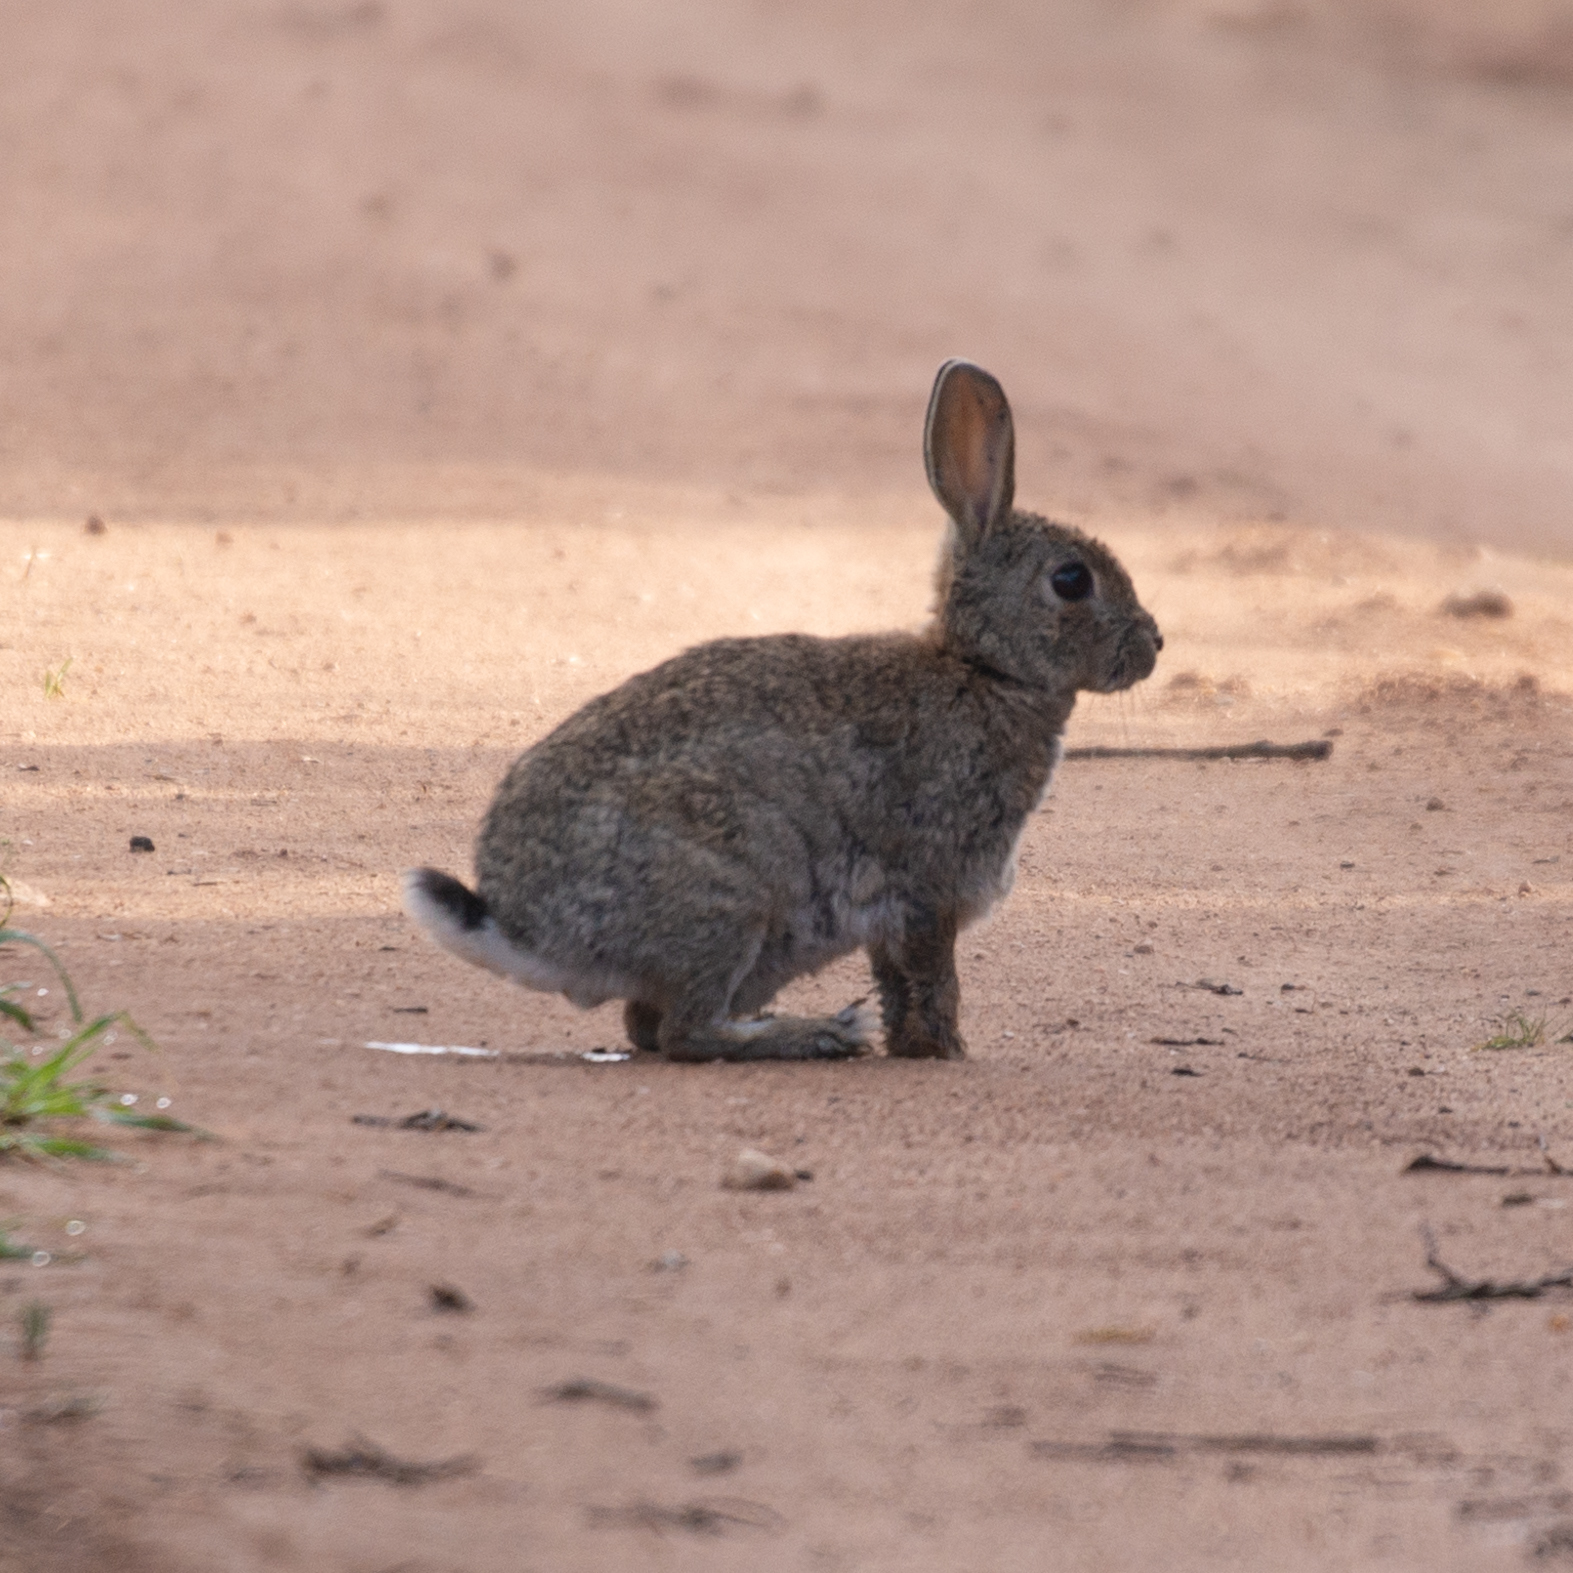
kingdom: Animalia
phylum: Chordata
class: Mammalia
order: Lagomorpha
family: Leporidae
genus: Oryctolagus
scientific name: Oryctolagus cuniculus
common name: European rabbit
